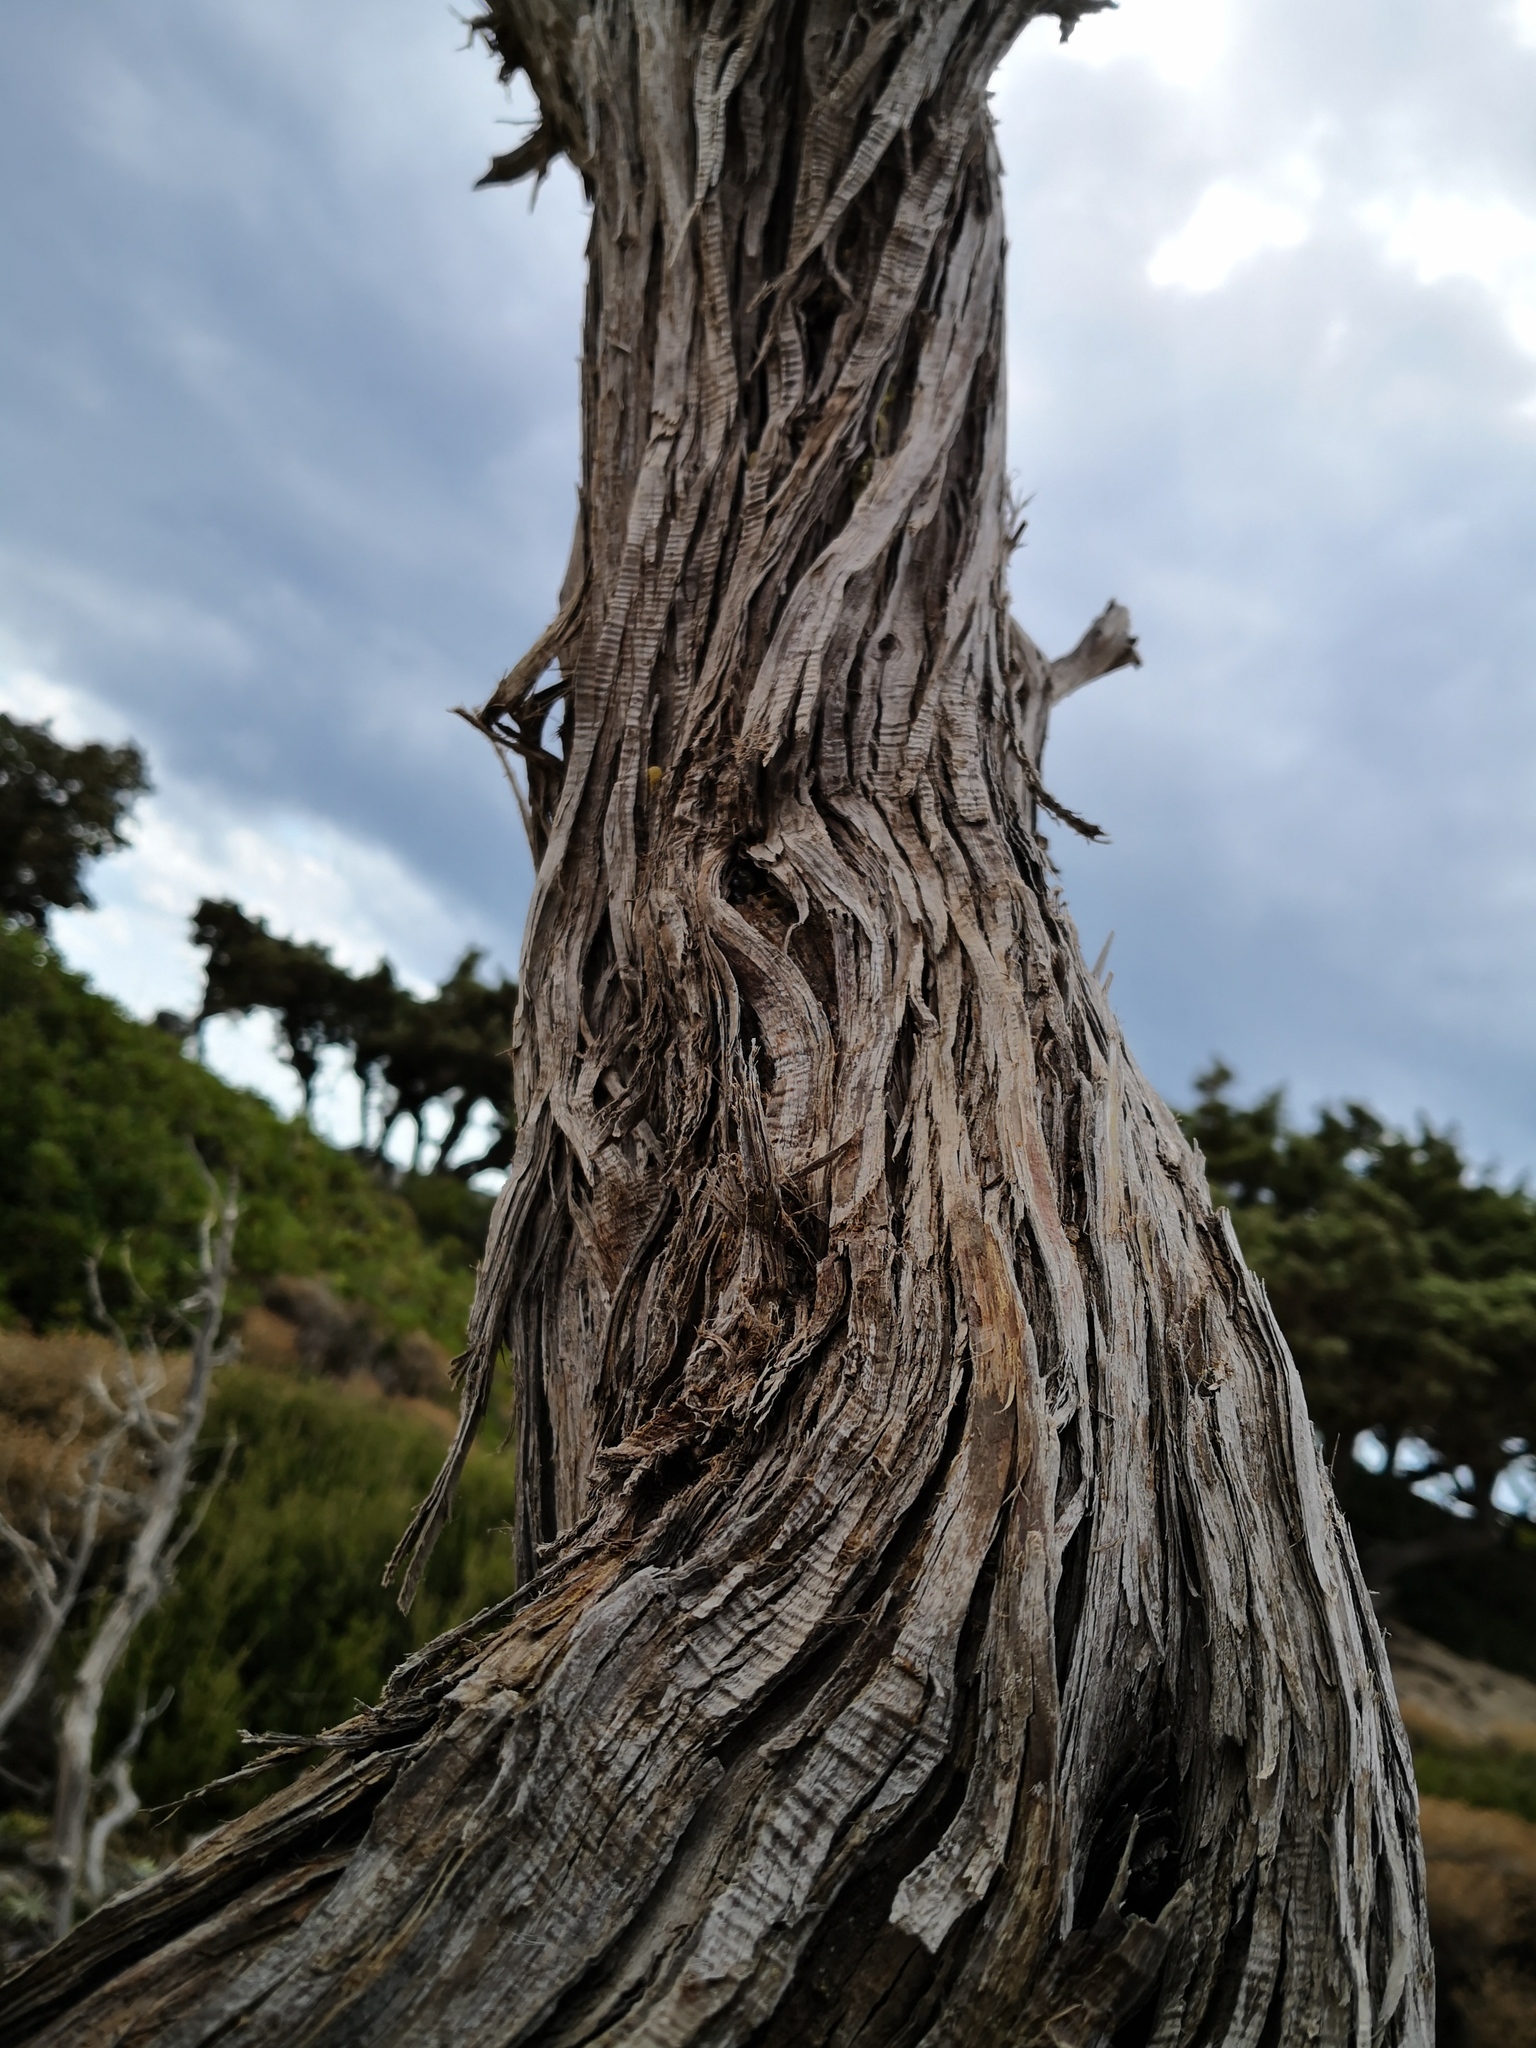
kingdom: Plantae
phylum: Tracheophyta
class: Pinopsida
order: Pinales
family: Cupressaceae
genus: Juniperus
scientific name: Juniperus oxycedrus
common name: Prickly juniper
